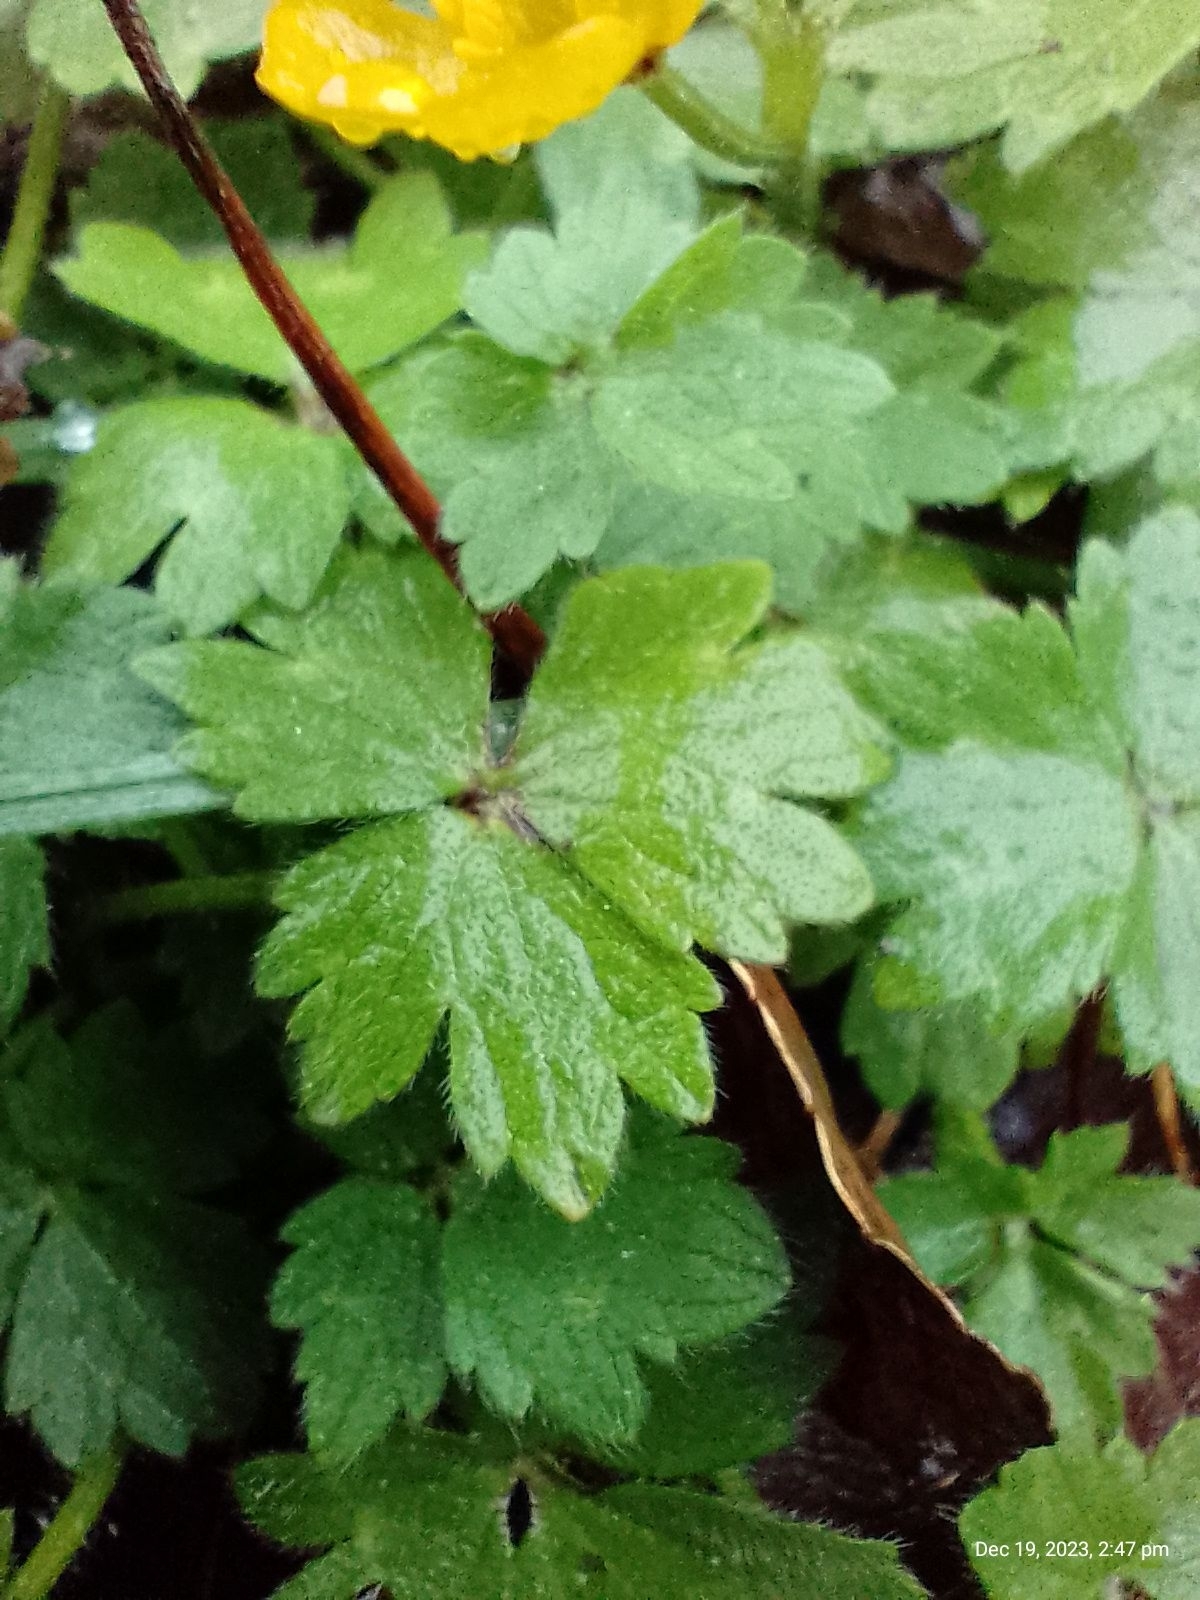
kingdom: Plantae
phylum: Tracheophyta
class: Magnoliopsida
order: Ranunculales
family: Ranunculaceae
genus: Ranunculus
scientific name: Ranunculus repens
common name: Creeping buttercup
